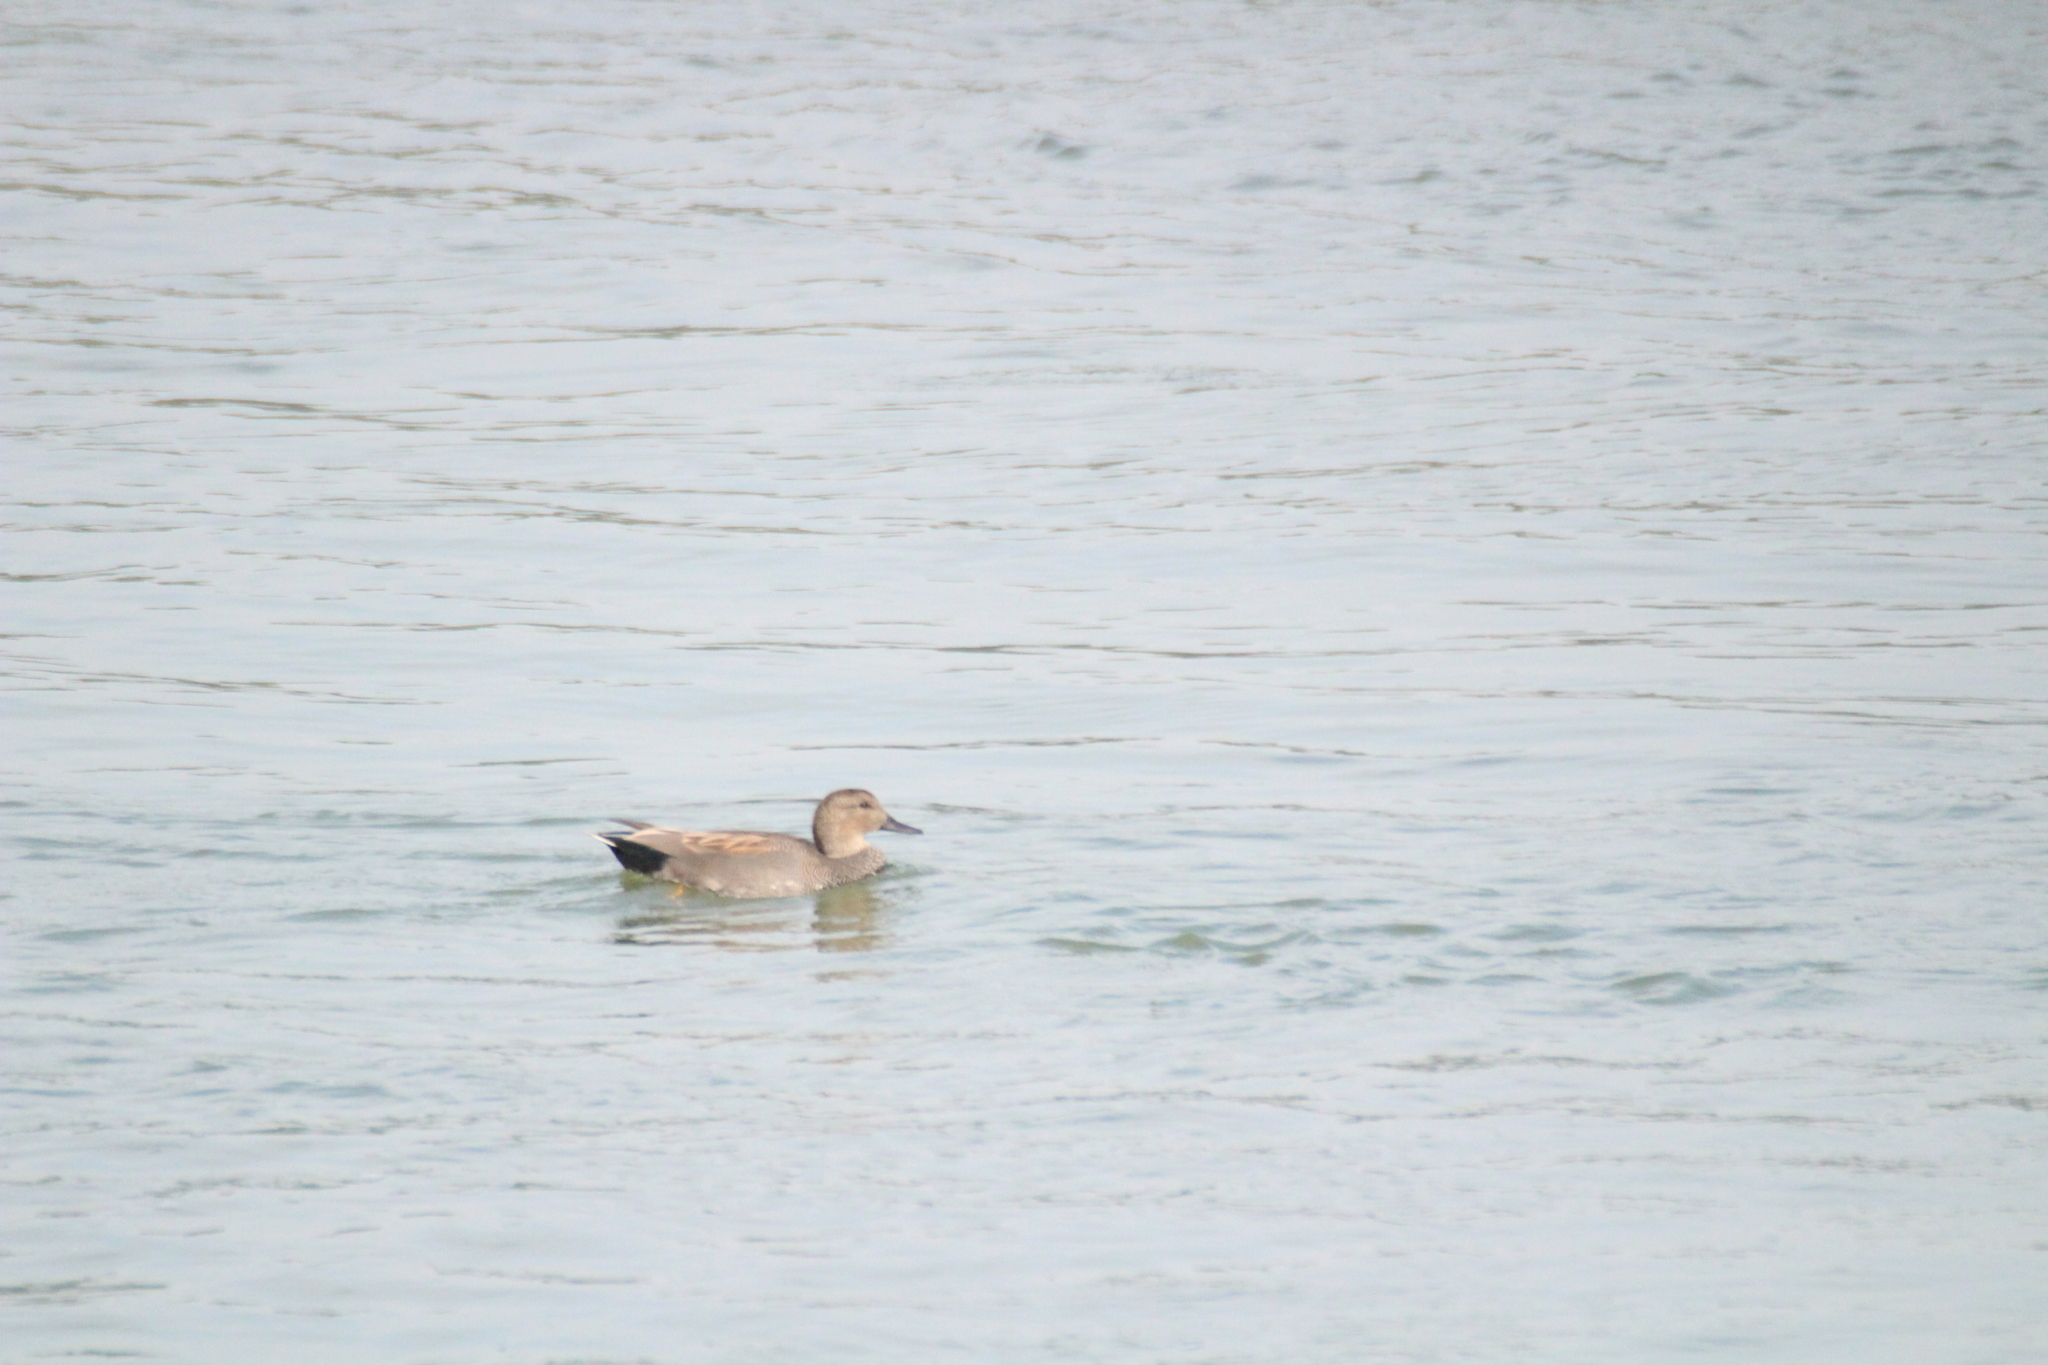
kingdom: Animalia
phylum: Chordata
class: Aves
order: Anseriformes
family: Anatidae
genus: Mareca
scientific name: Mareca strepera
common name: Gadwall
